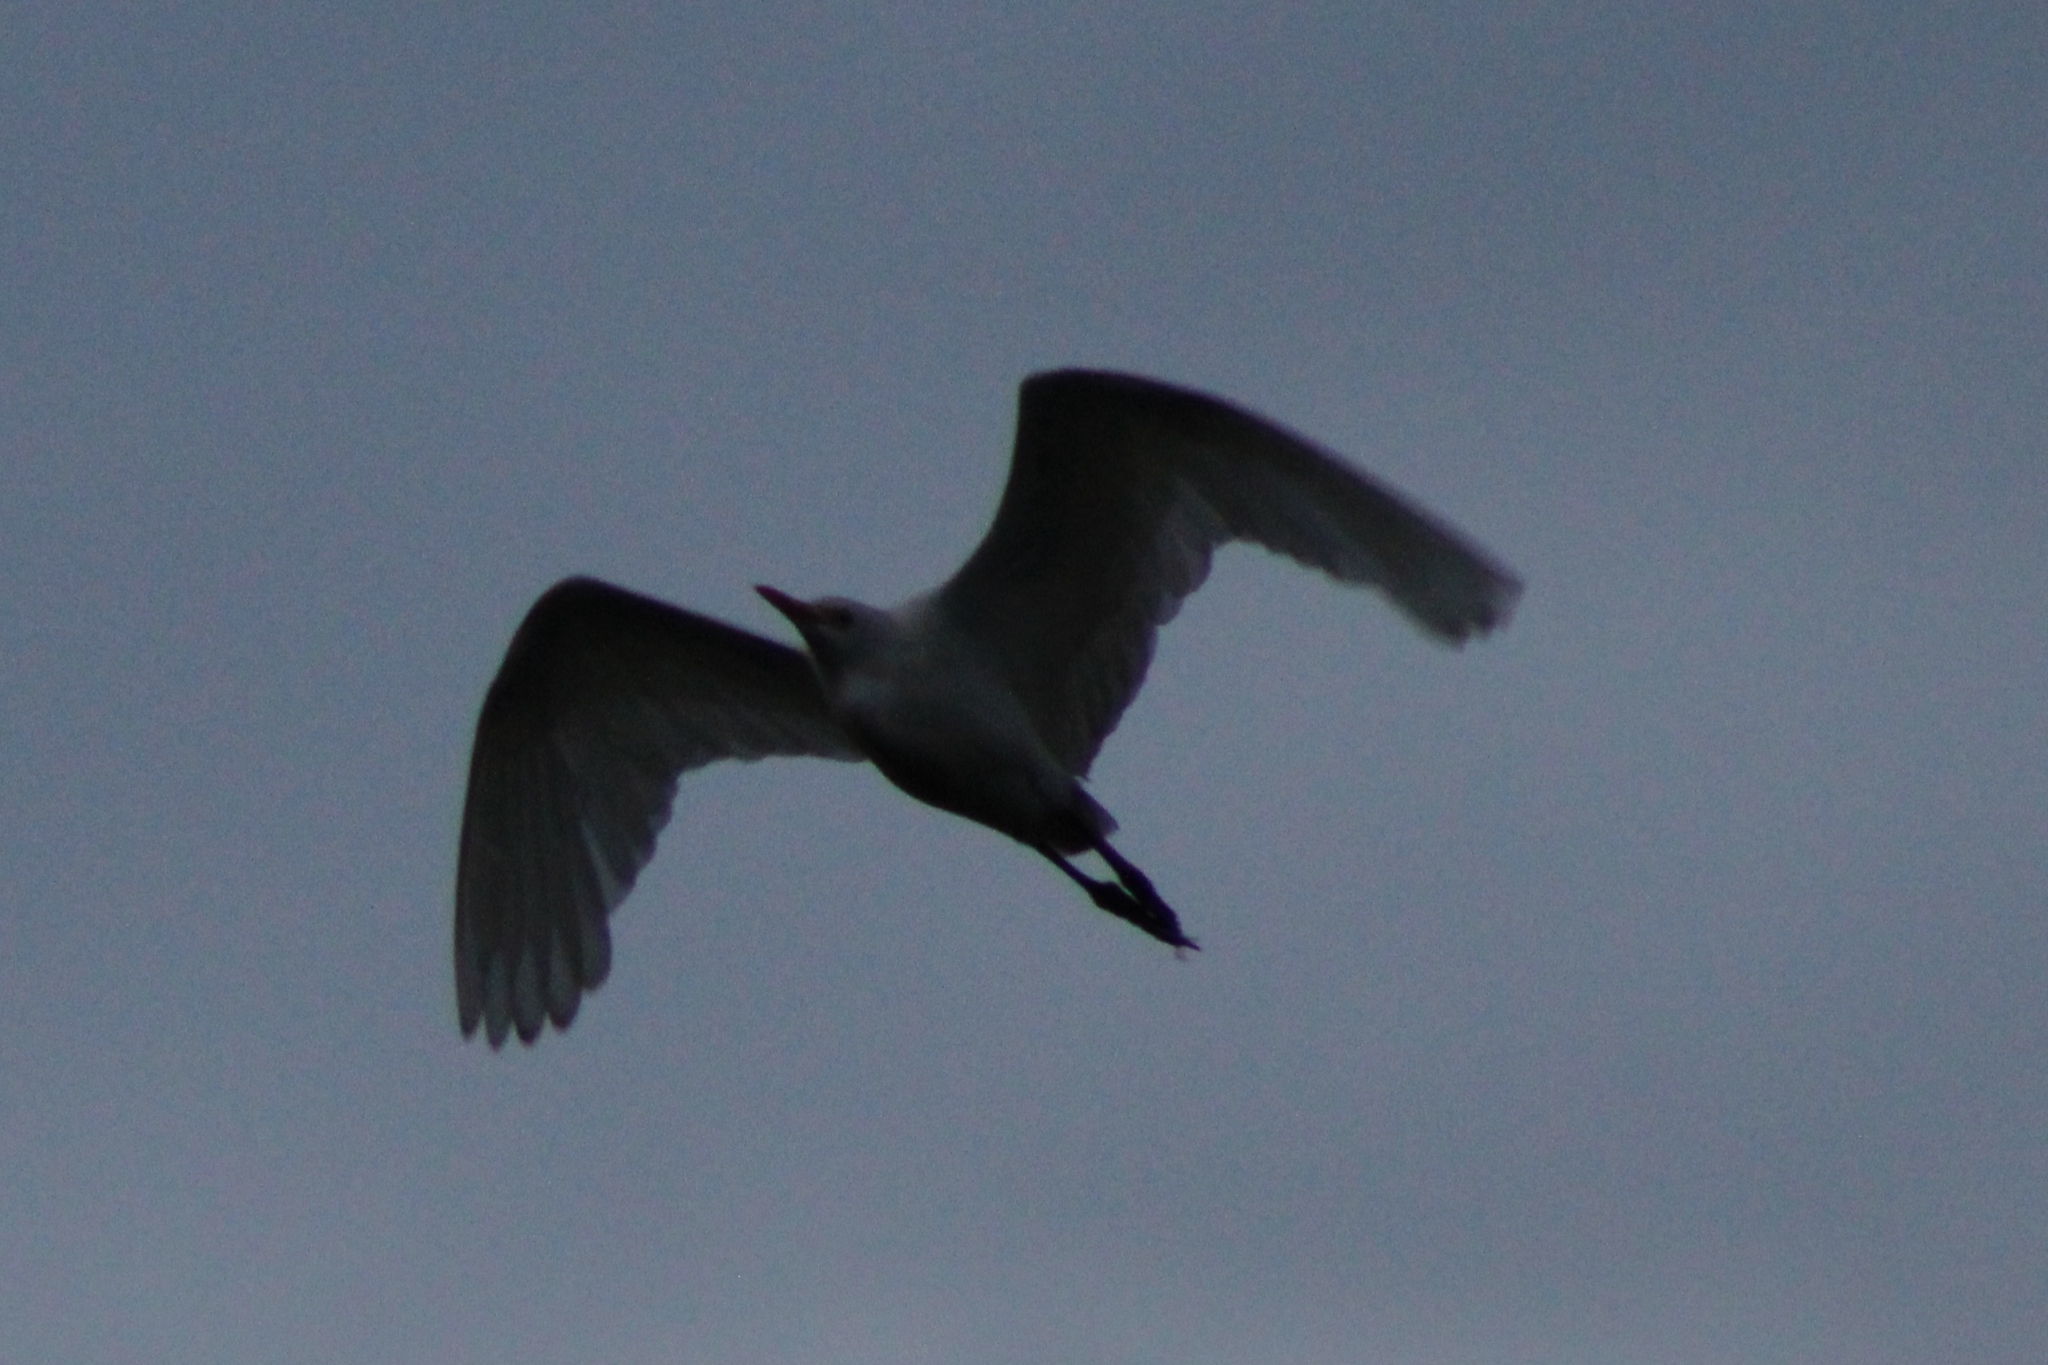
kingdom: Animalia
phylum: Chordata
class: Aves
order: Pelecaniformes
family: Ardeidae
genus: Bubulcus
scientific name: Bubulcus ibis
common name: Cattle egret
